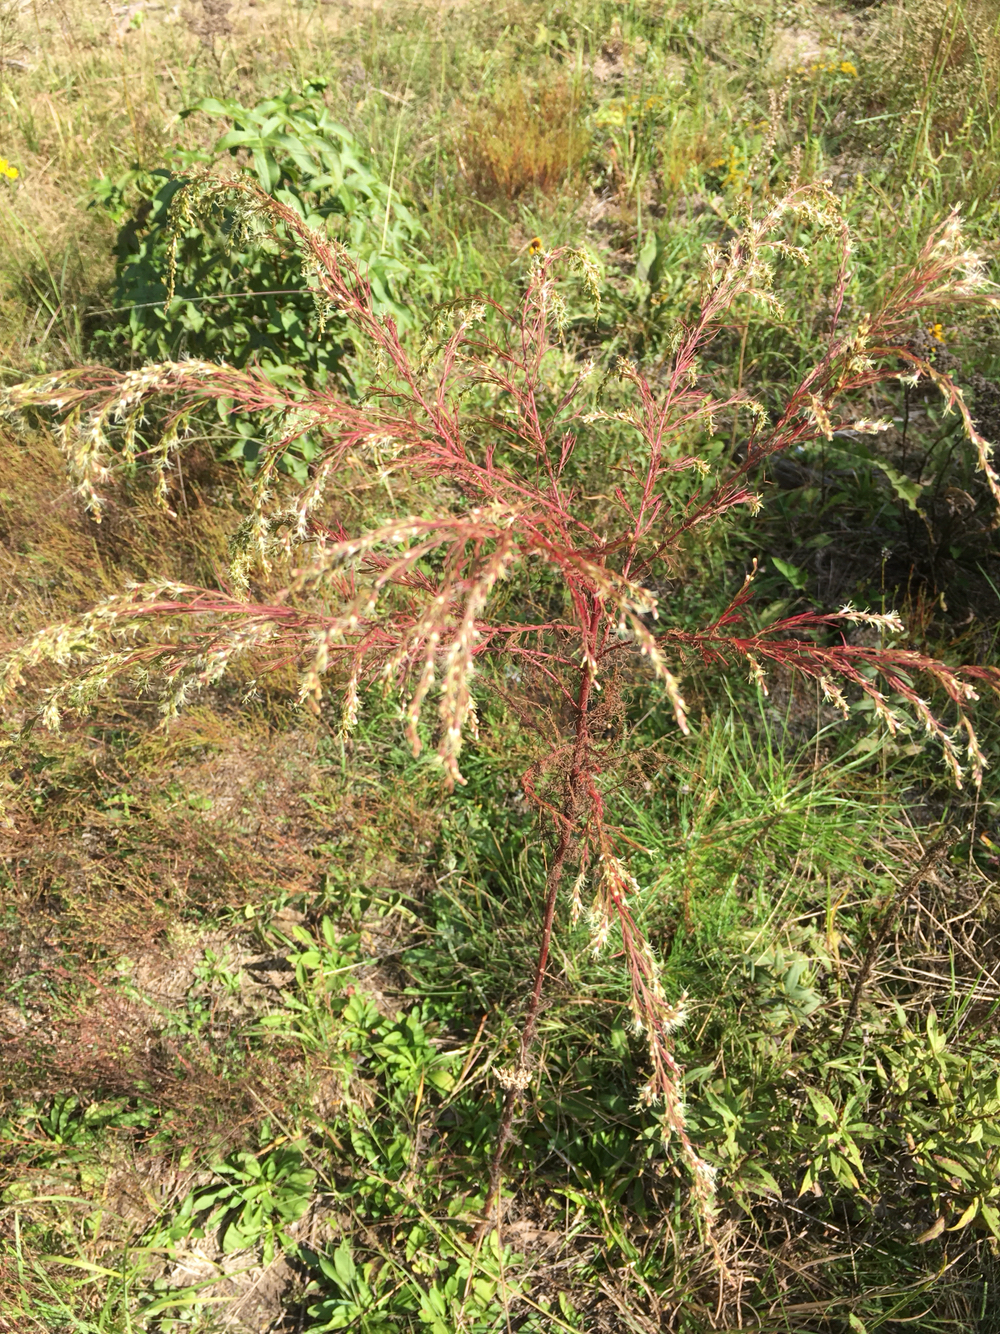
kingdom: Plantae
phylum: Tracheophyta
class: Magnoliopsida
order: Asterales
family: Asteraceae
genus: Eupatorium
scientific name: Eupatorium capillifolium
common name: Dog-fennel
